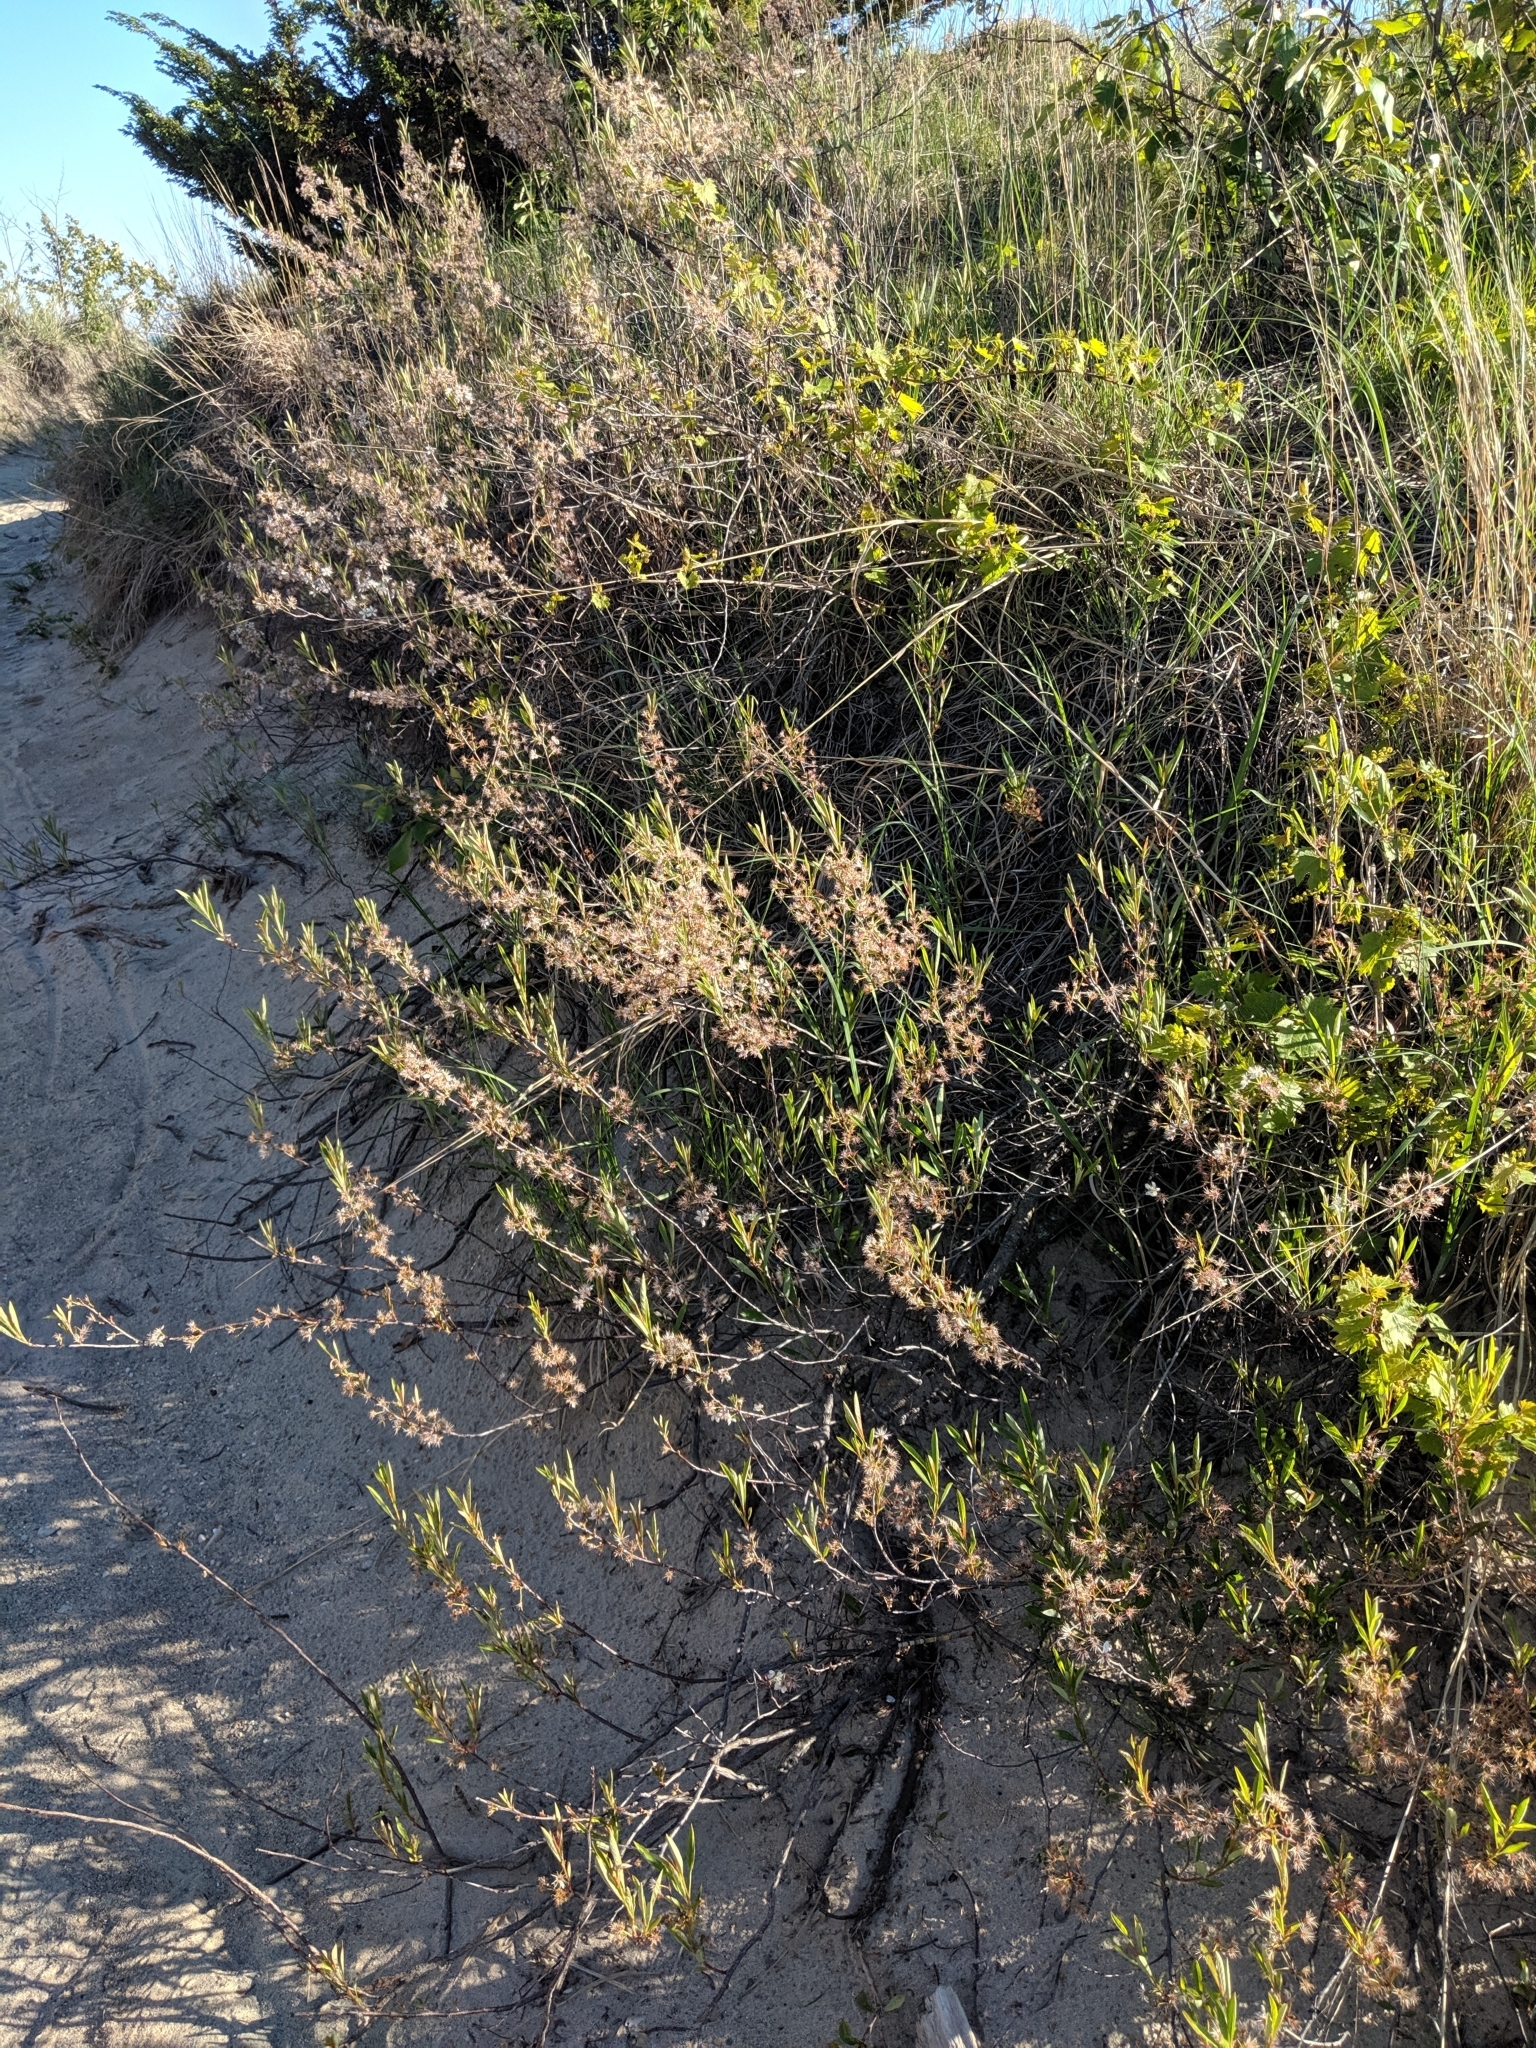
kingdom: Plantae
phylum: Tracheophyta
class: Magnoliopsida
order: Rosales
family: Rosaceae
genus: Prunus
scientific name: Prunus pumila
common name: Dwarf cherry
